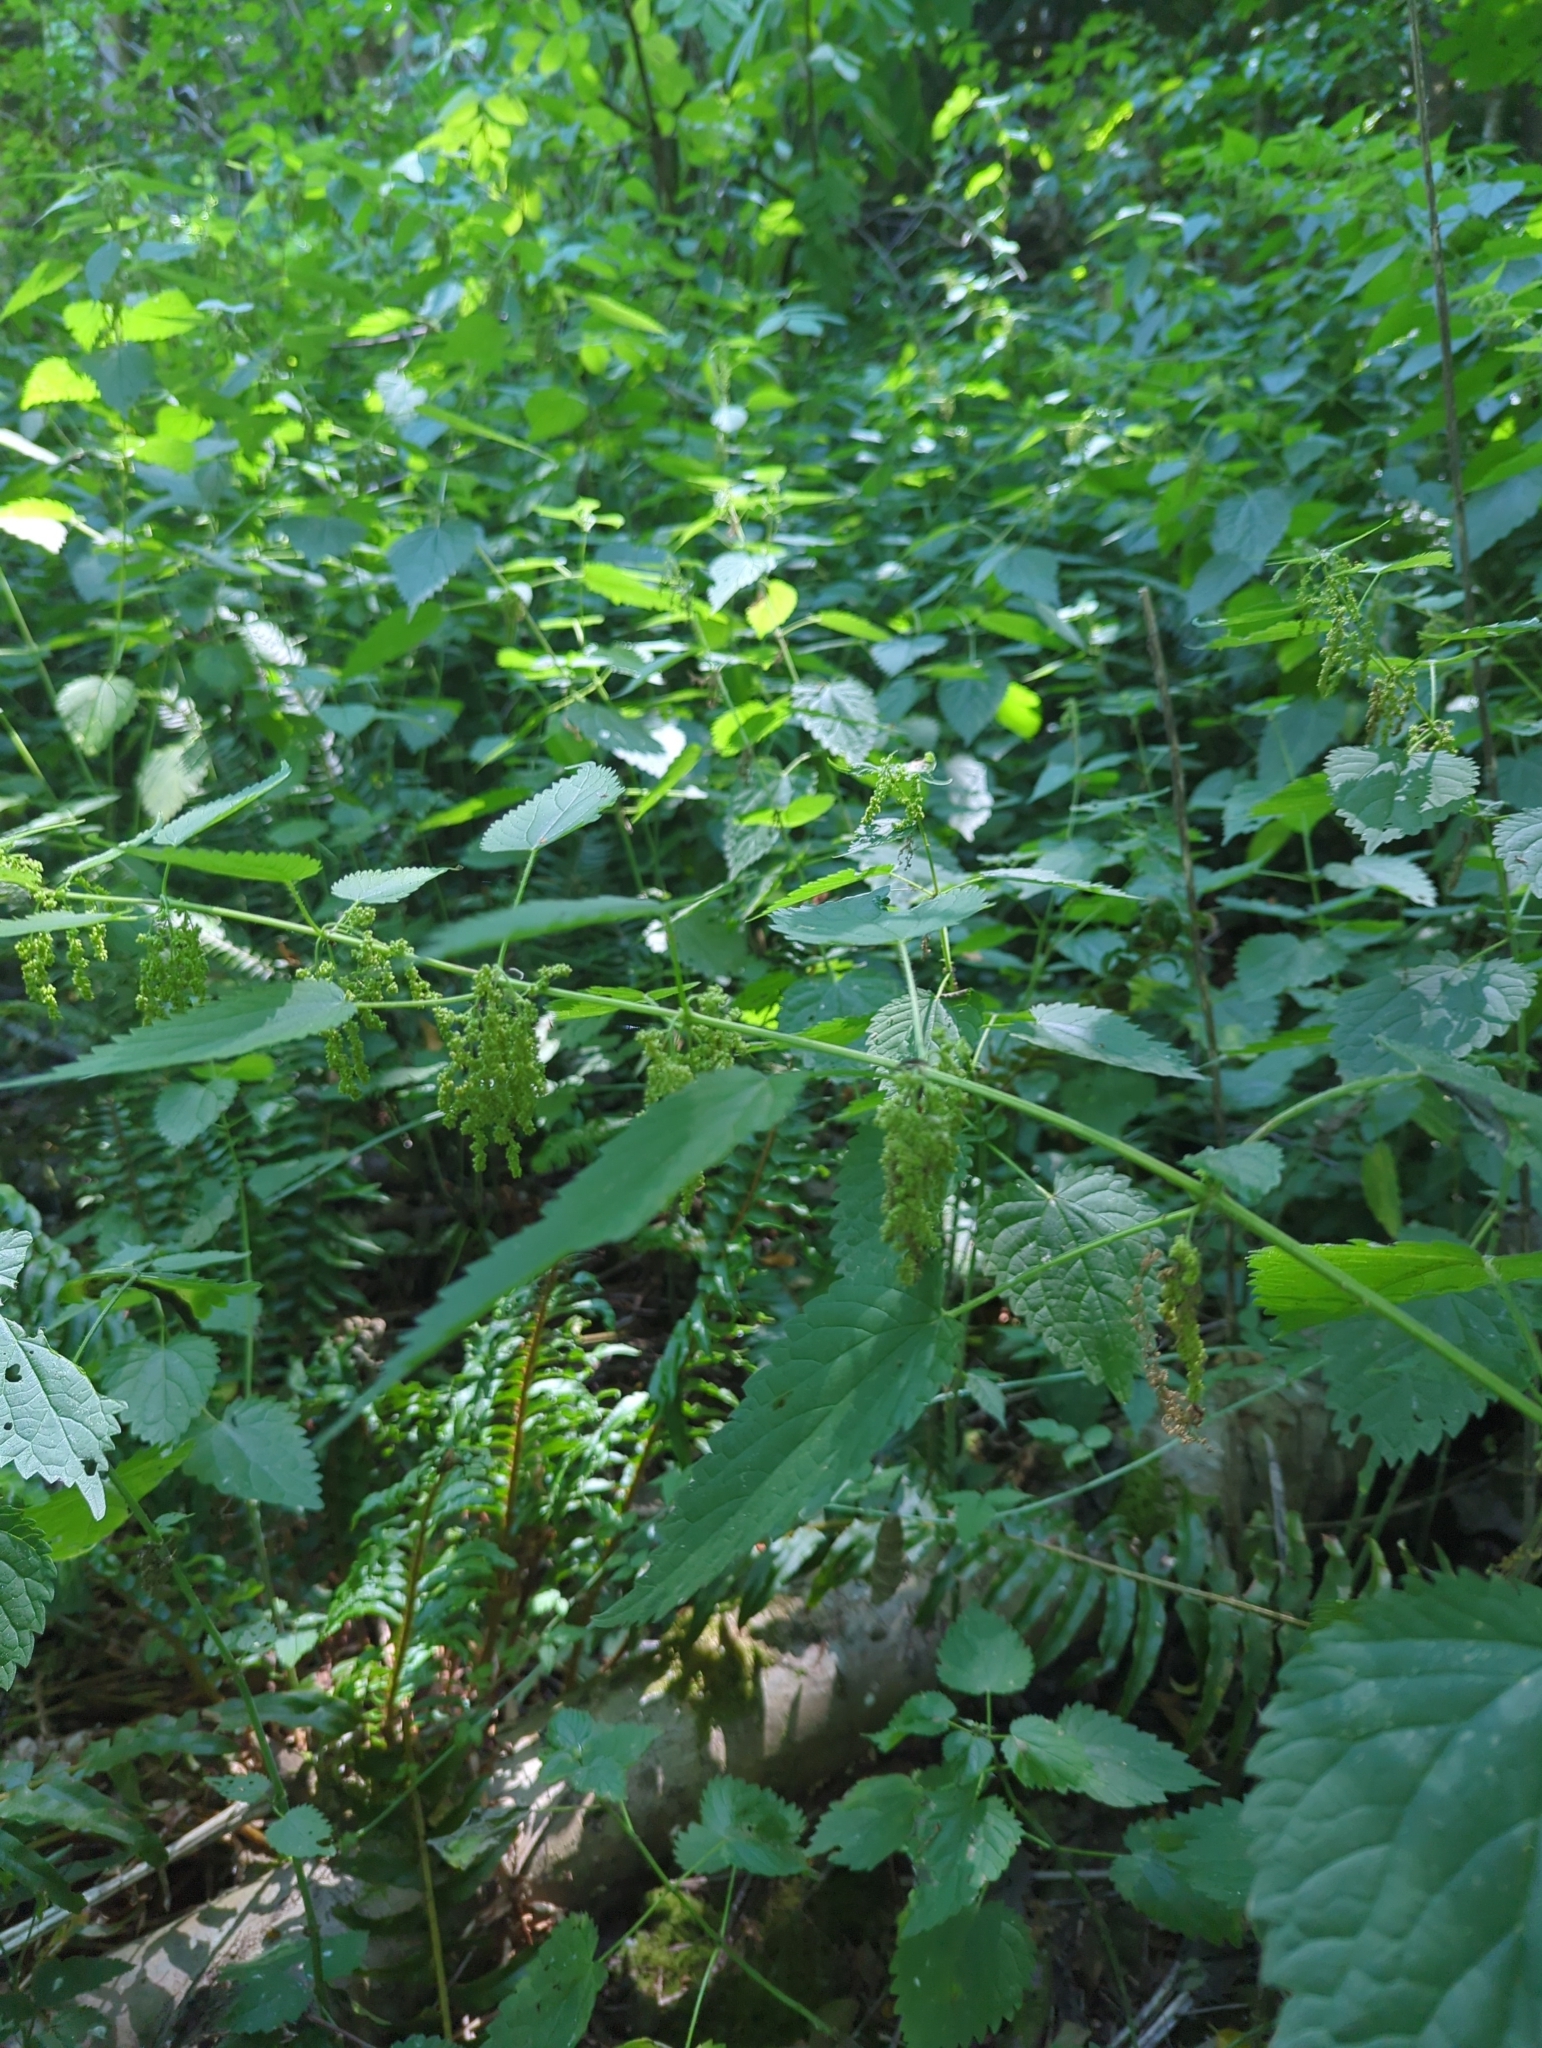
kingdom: Plantae
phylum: Tracheophyta
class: Magnoliopsida
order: Rosales
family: Urticaceae
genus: Urtica
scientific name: Urtica gracilis
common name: Slender stinging nettle
